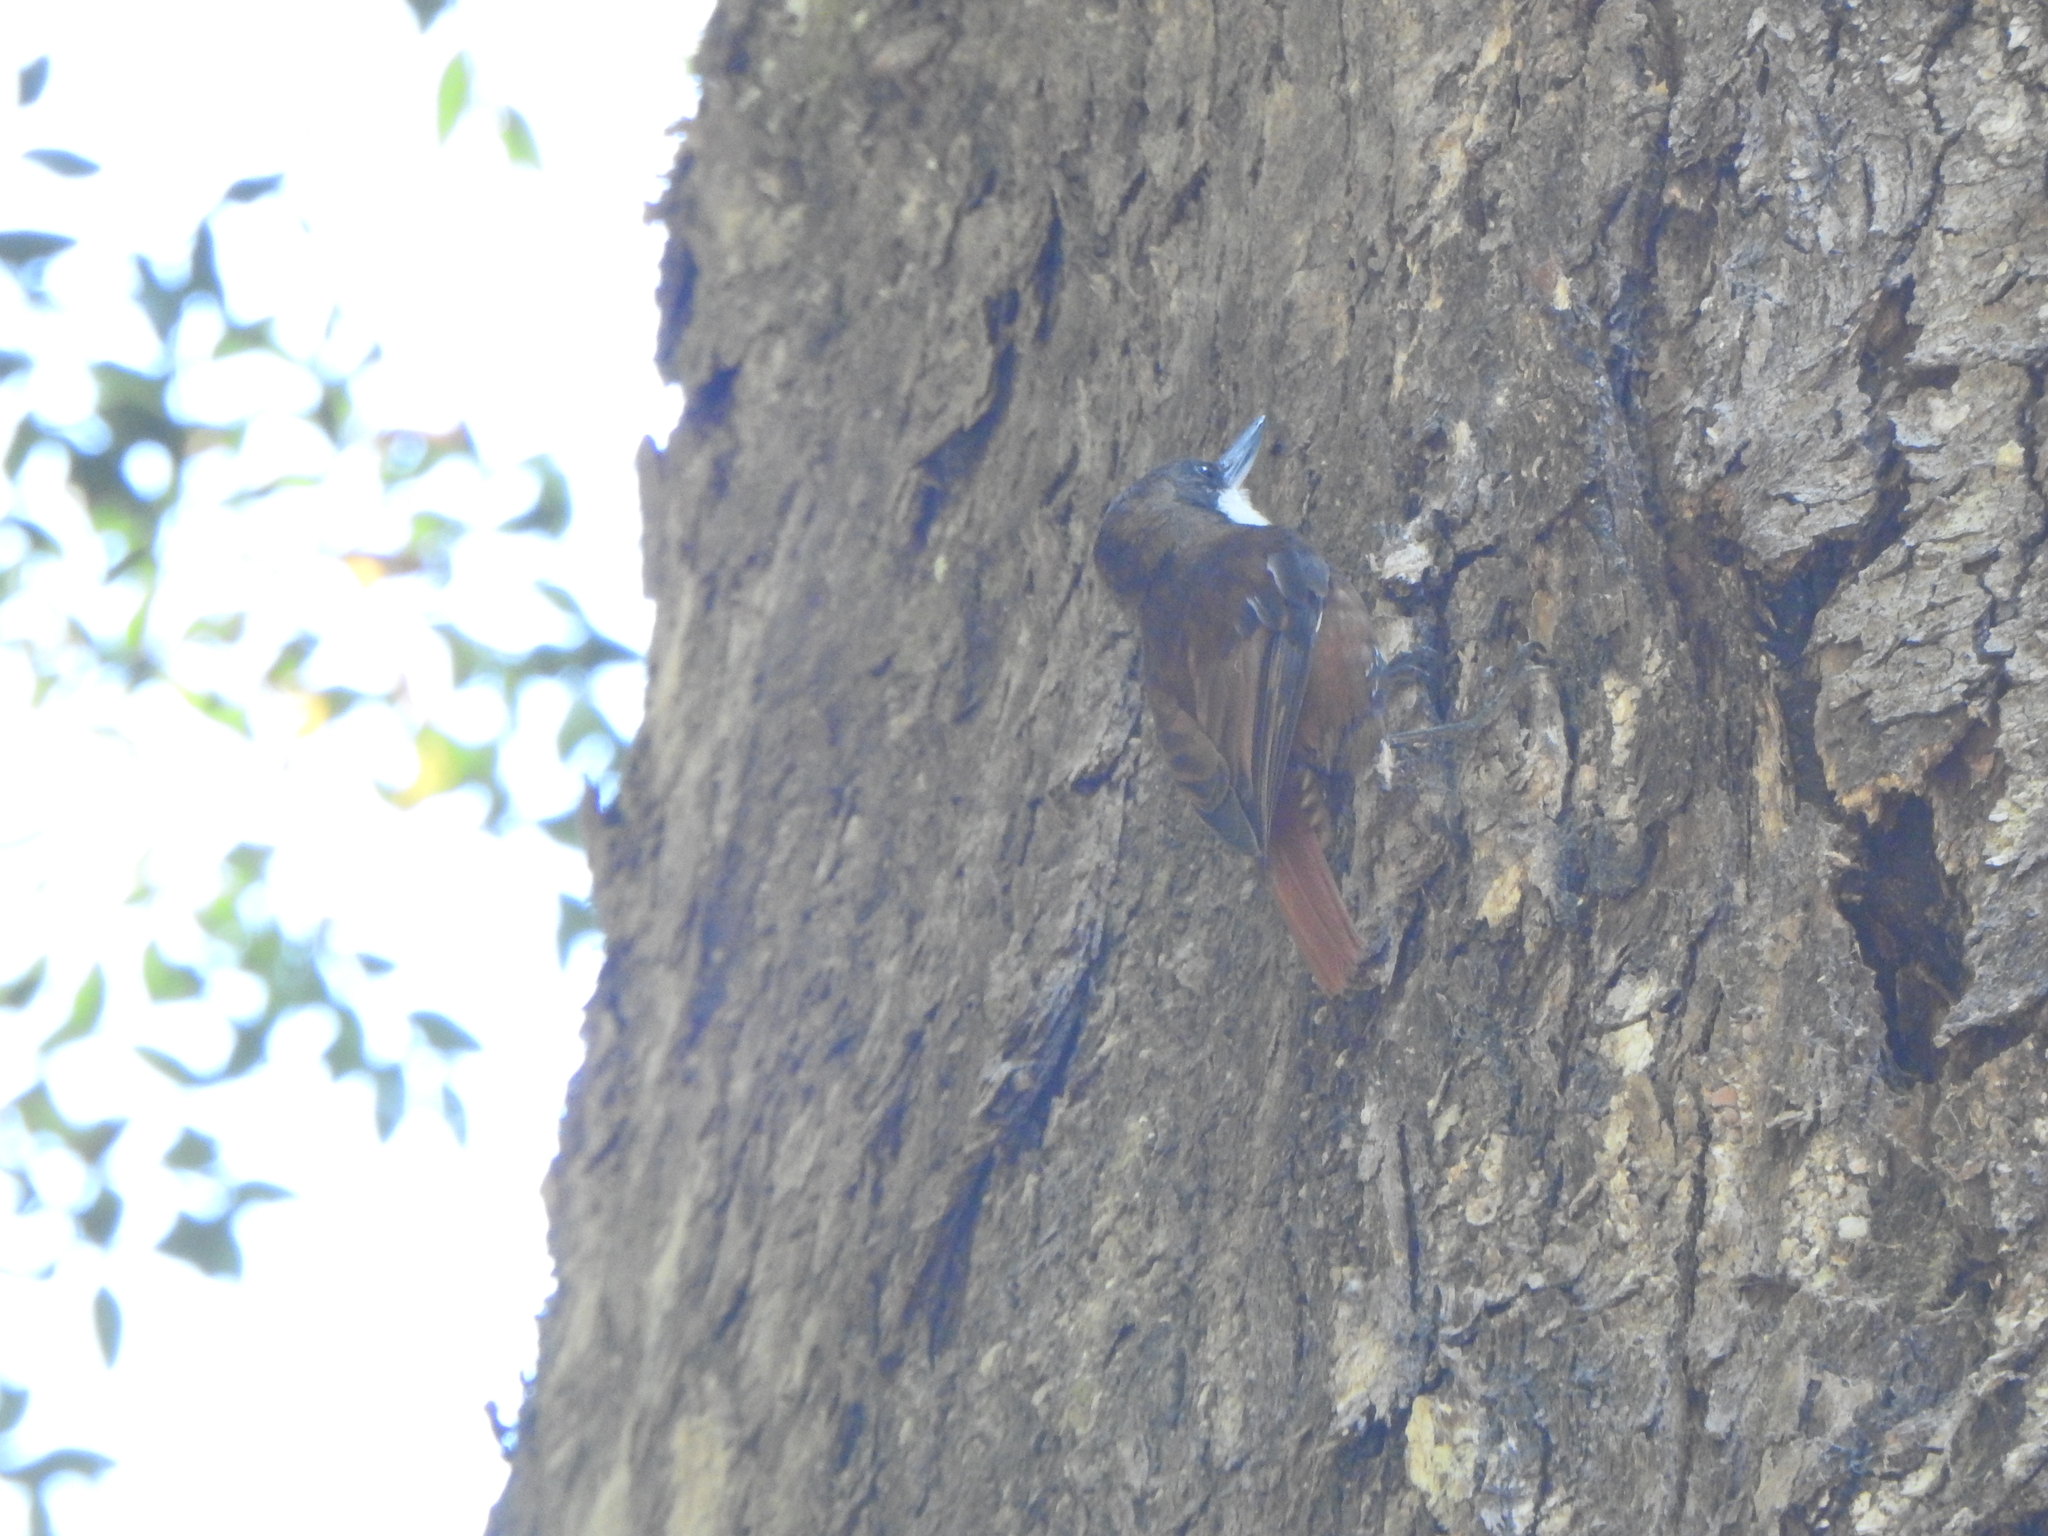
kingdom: Animalia
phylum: Chordata
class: Aves
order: Passeriformes
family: Furnariidae
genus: Pygarrhichas
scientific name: Pygarrhichas albogularis
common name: White-throated treerunner
